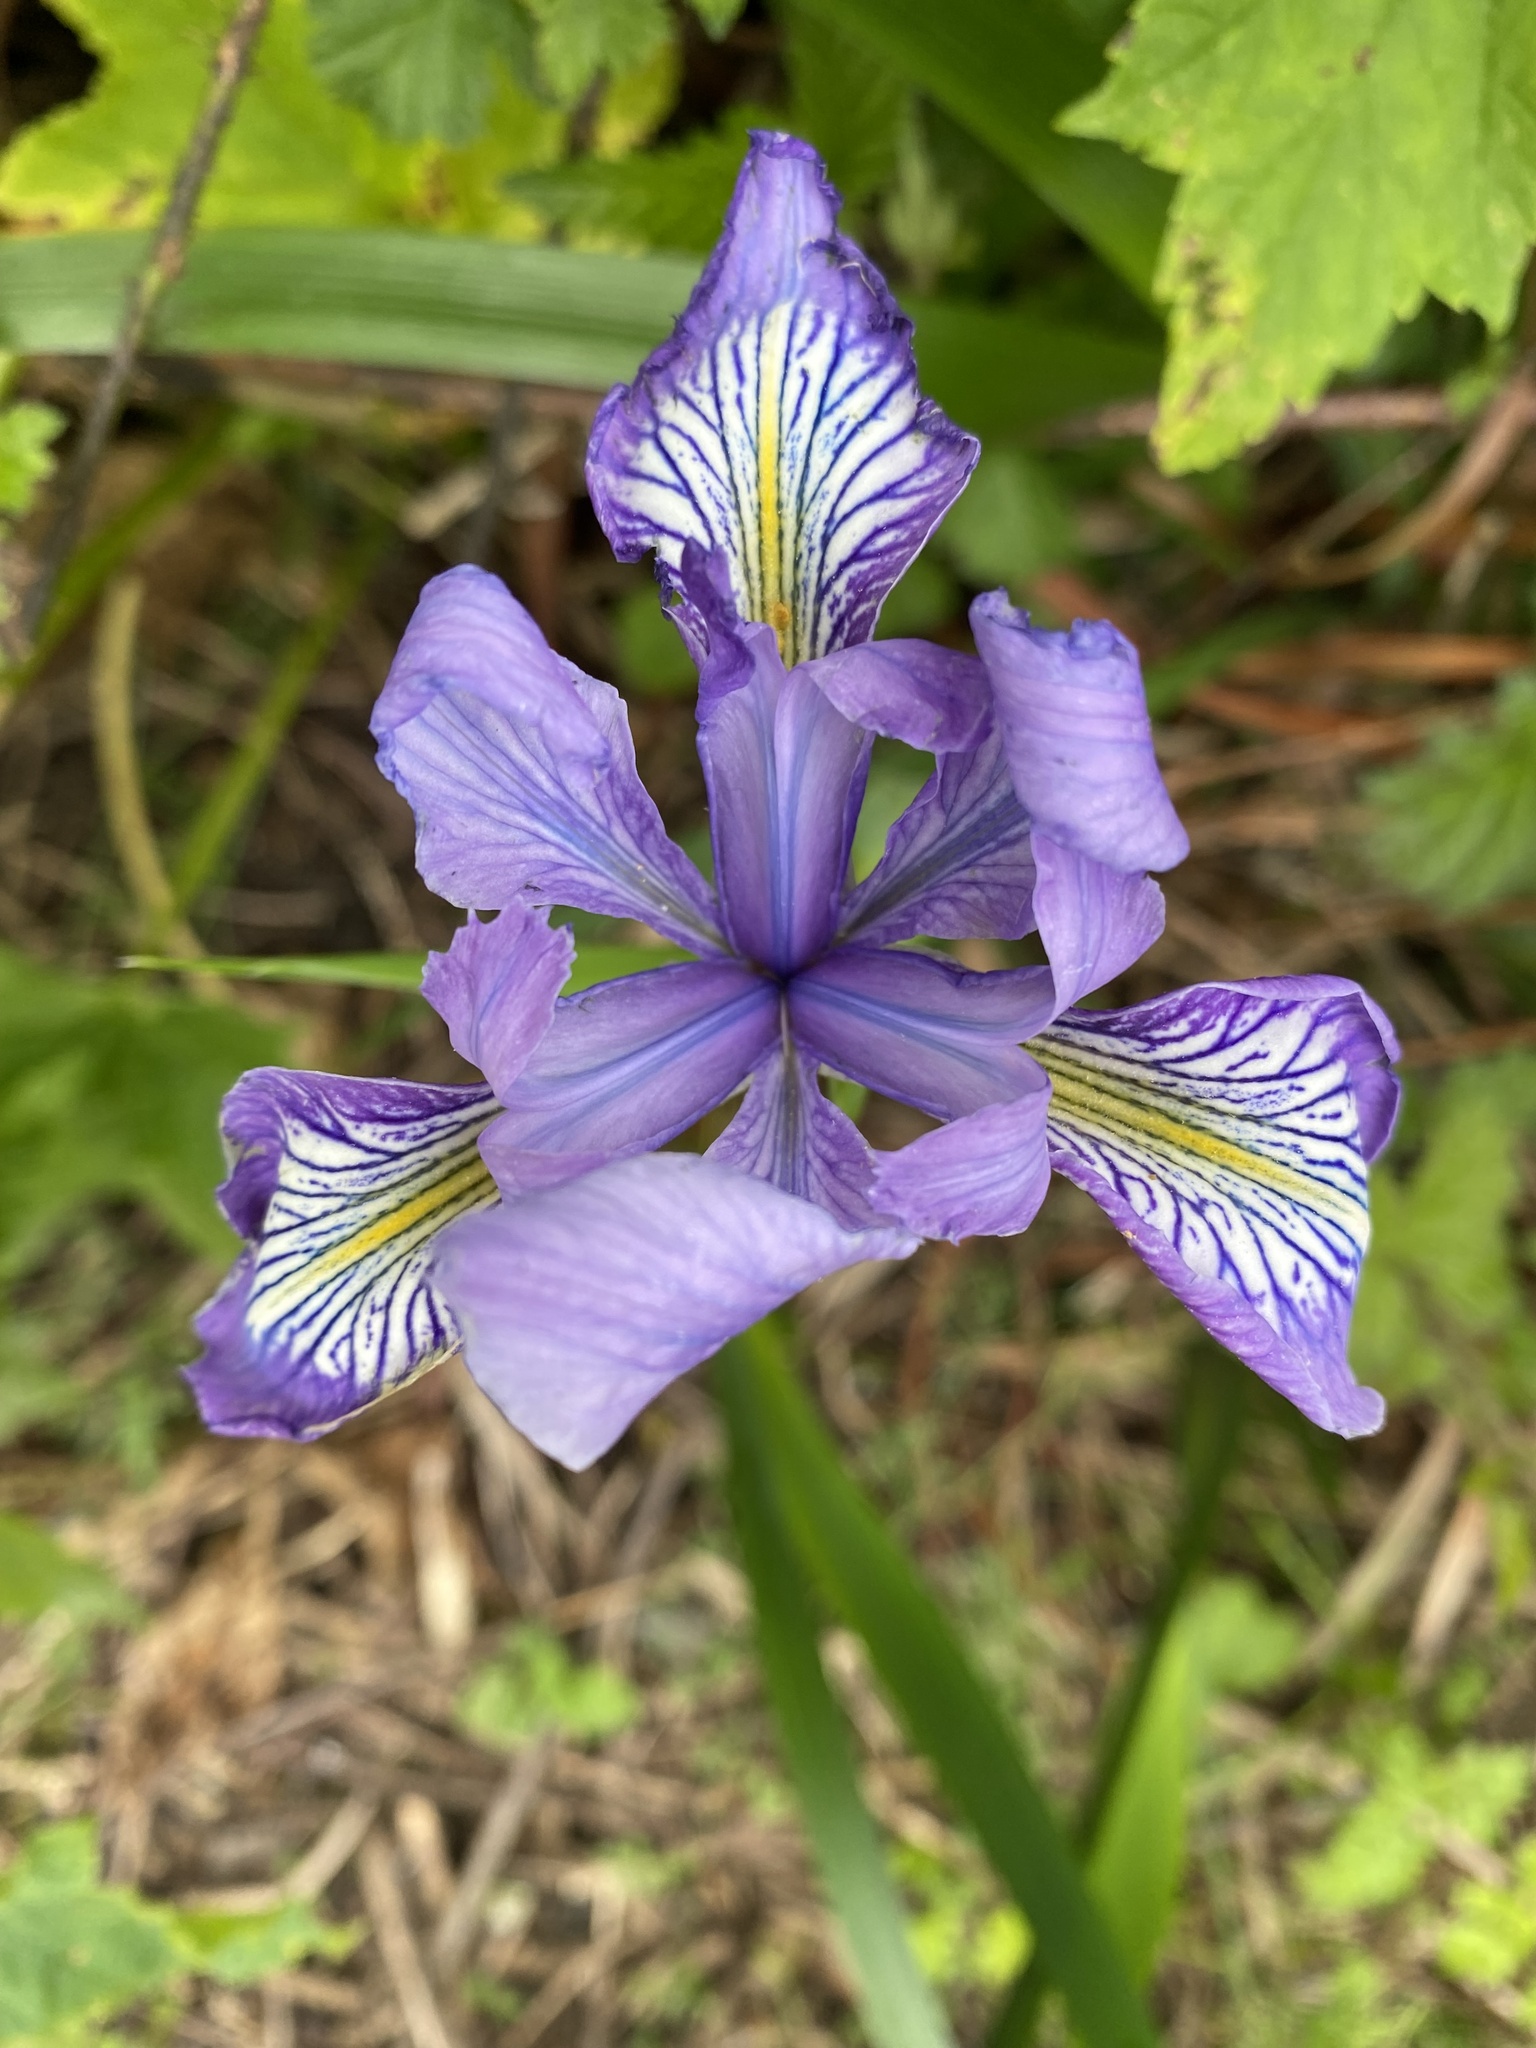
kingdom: Plantae
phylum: Tracheophyta
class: Liliopsida
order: Asparagales
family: Iridaceae
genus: Iris
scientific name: Iris douglasiana
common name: Marin iris
